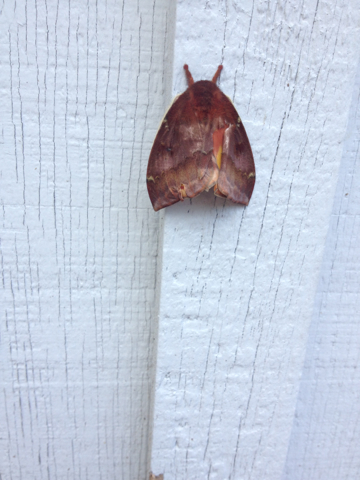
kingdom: Animalia
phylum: Arthropoda
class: Insecta
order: Lepidoptera
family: Saturniidae
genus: Automeris
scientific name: Automeris io
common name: Io moth
